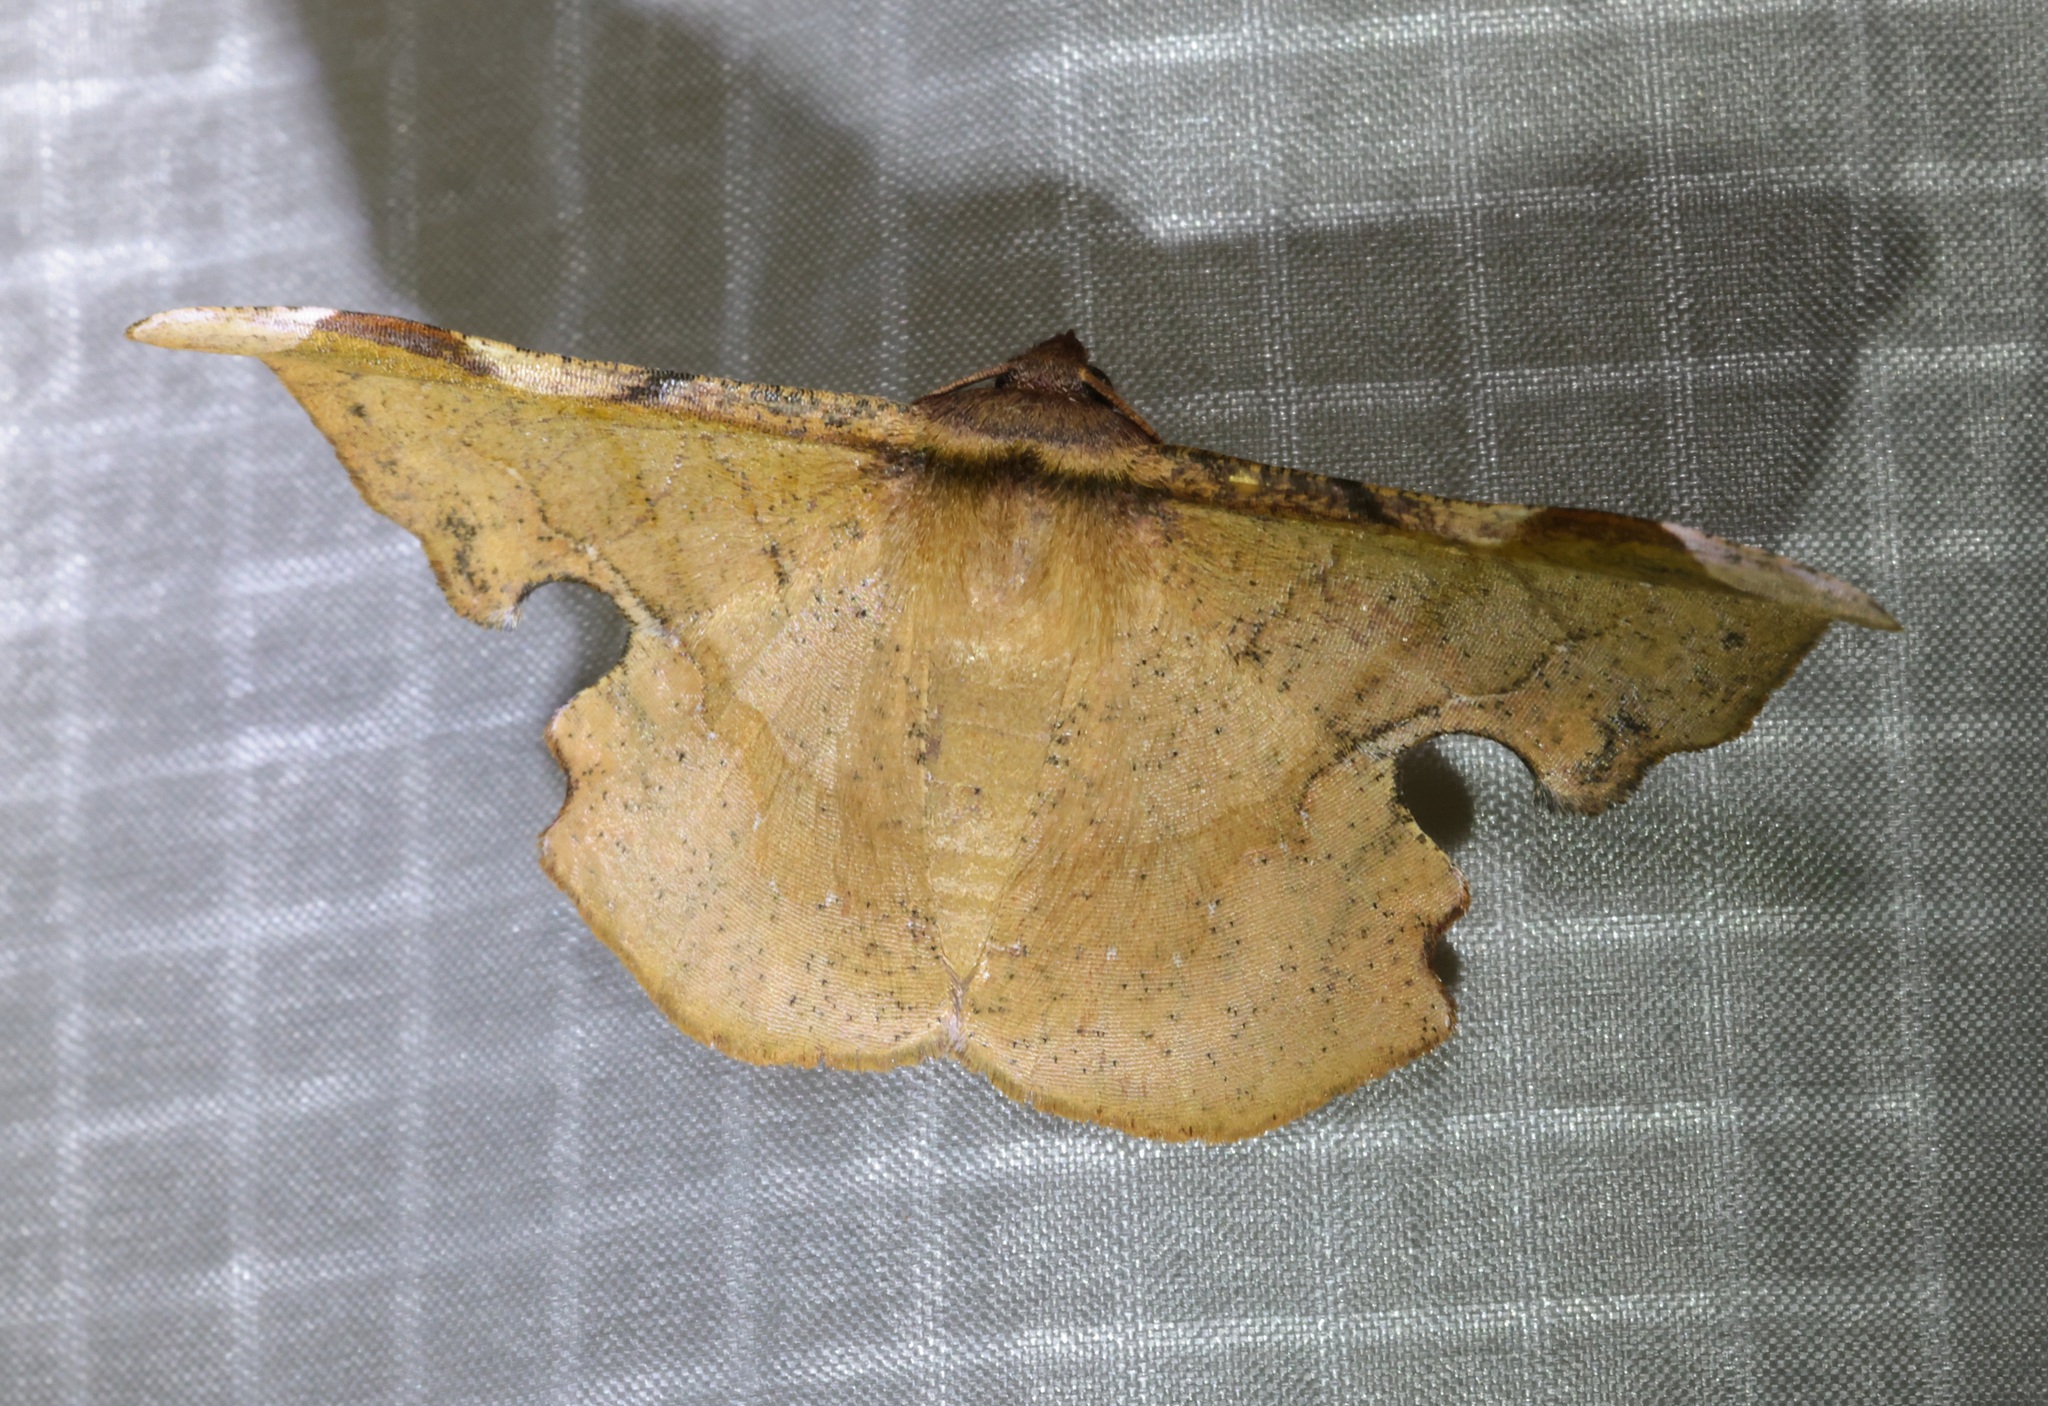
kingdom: Animalia
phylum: Arthropoda
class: Insecta
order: Lepidoptera
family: Geometridae
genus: Fascellina
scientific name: Fascellina chromataria
